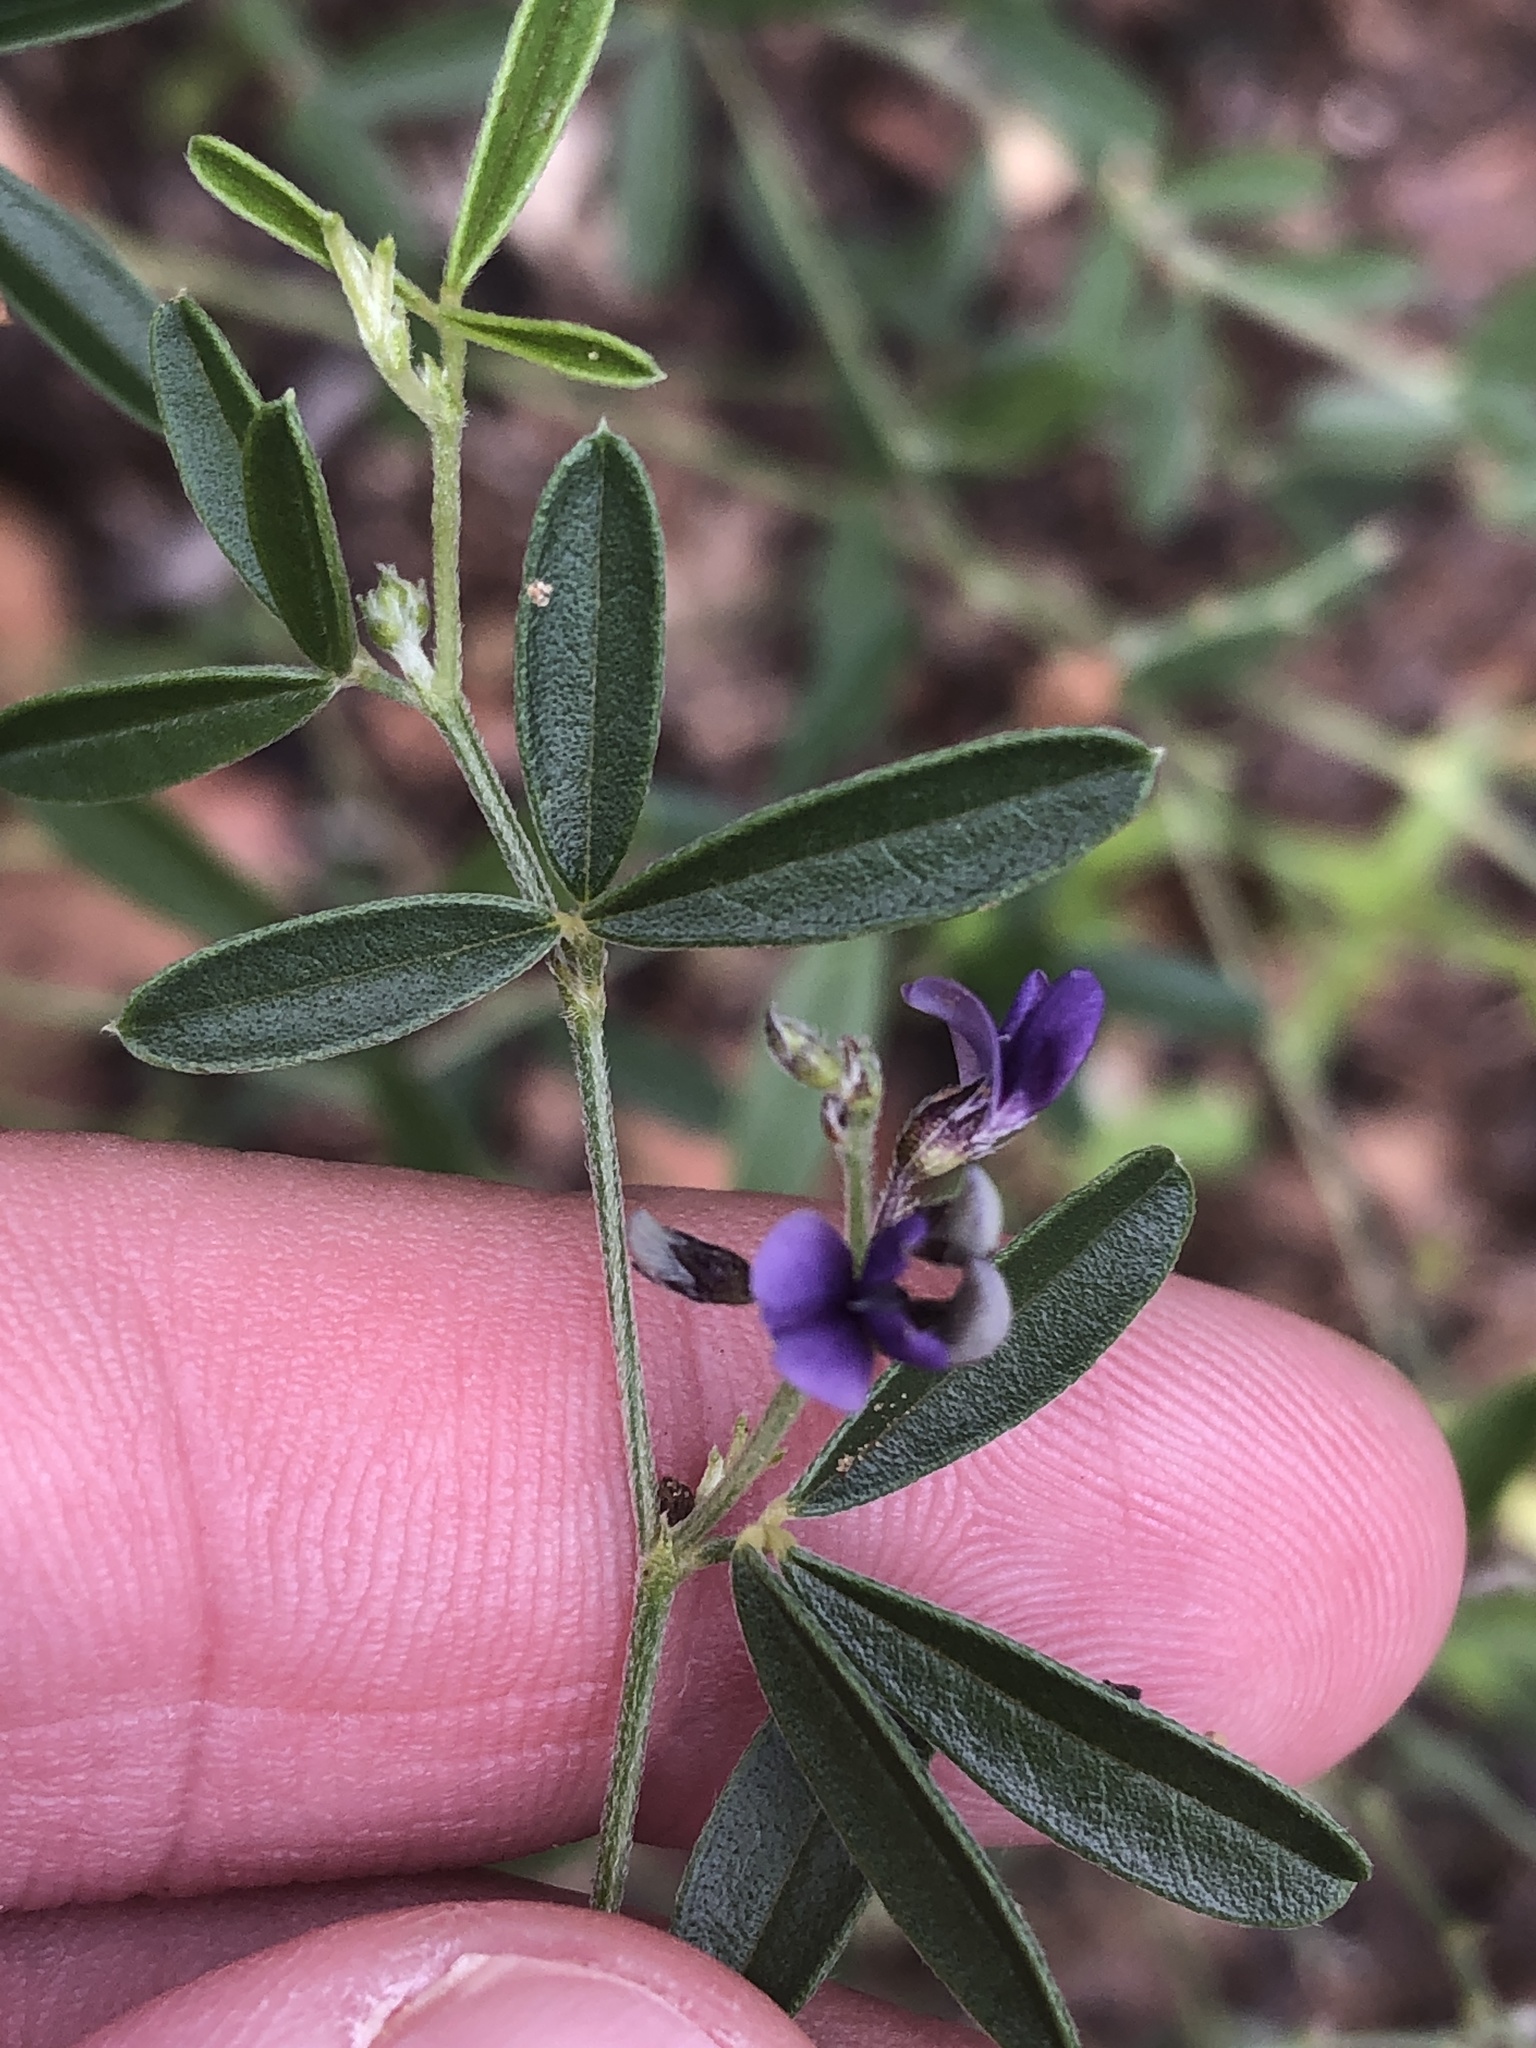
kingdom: Plantae
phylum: Tracheophyta
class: Magnoliopsida
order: Fabales
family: Fabaceae
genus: Pediomelum
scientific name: Pediomelum tenuiflorum
